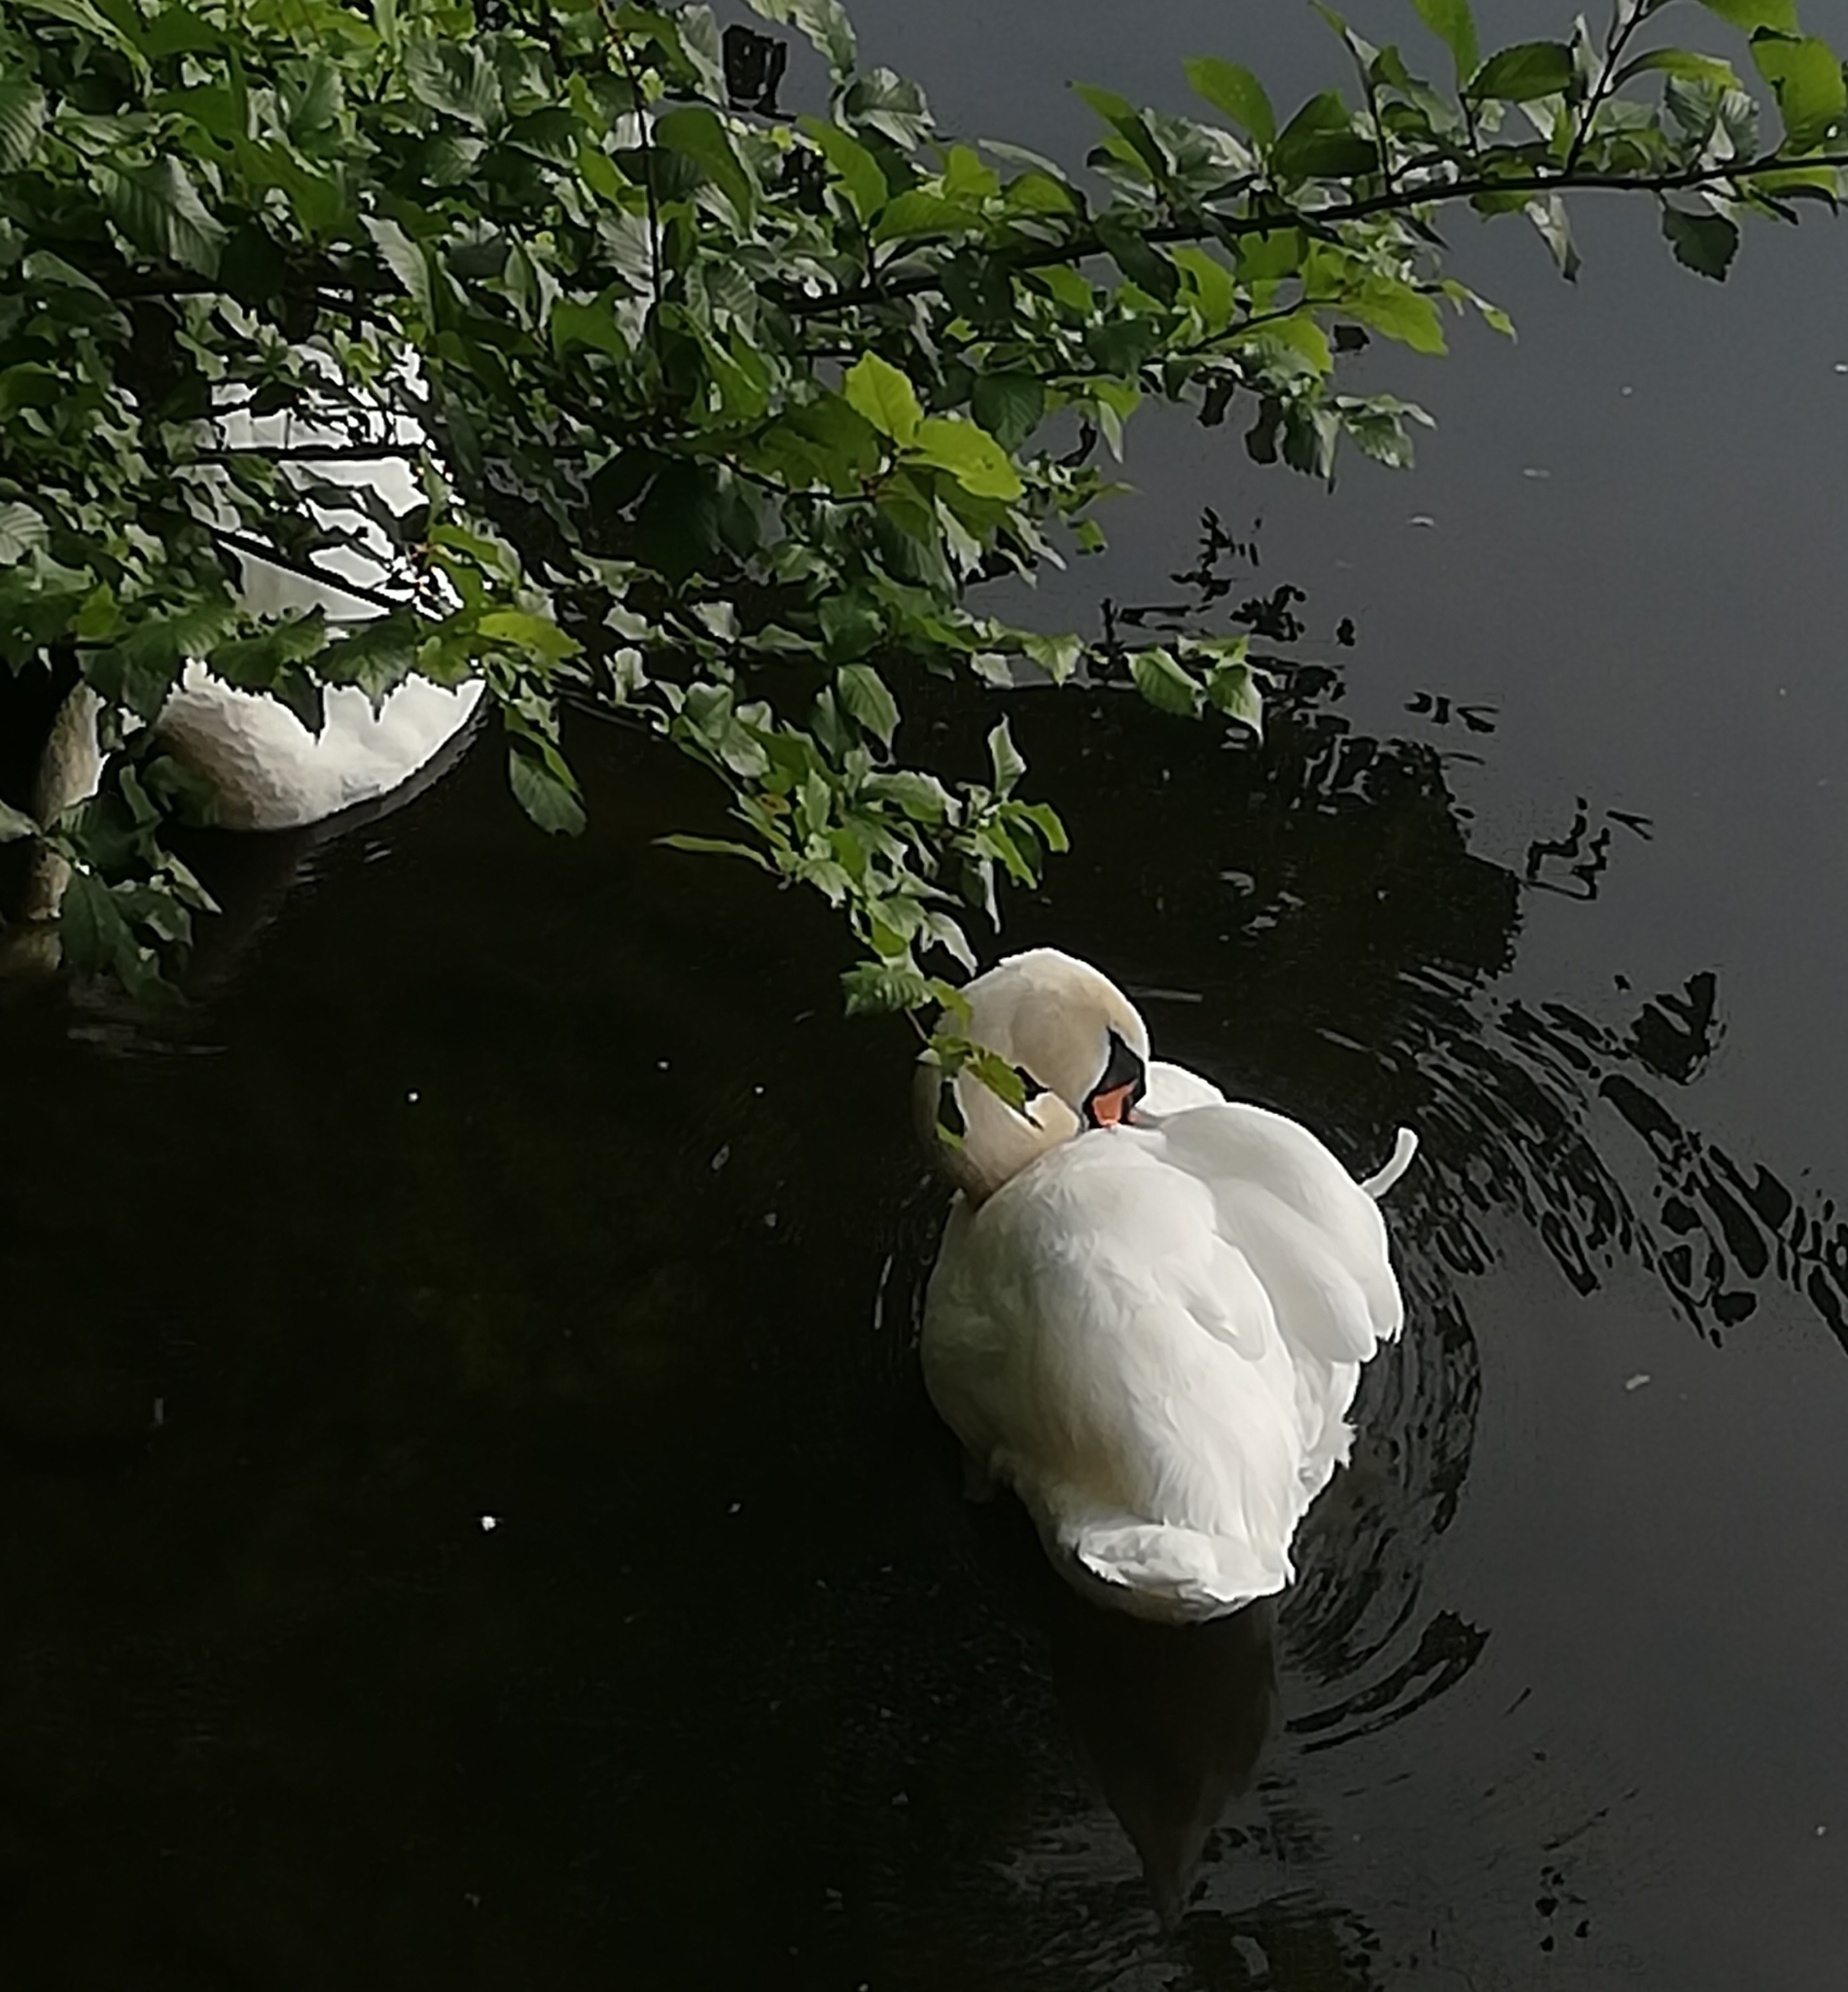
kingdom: Animalia
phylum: Chordata
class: Aves
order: Anseriformes
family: Anatidae
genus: Cygnus
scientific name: Cygnus olor
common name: Mute swan
